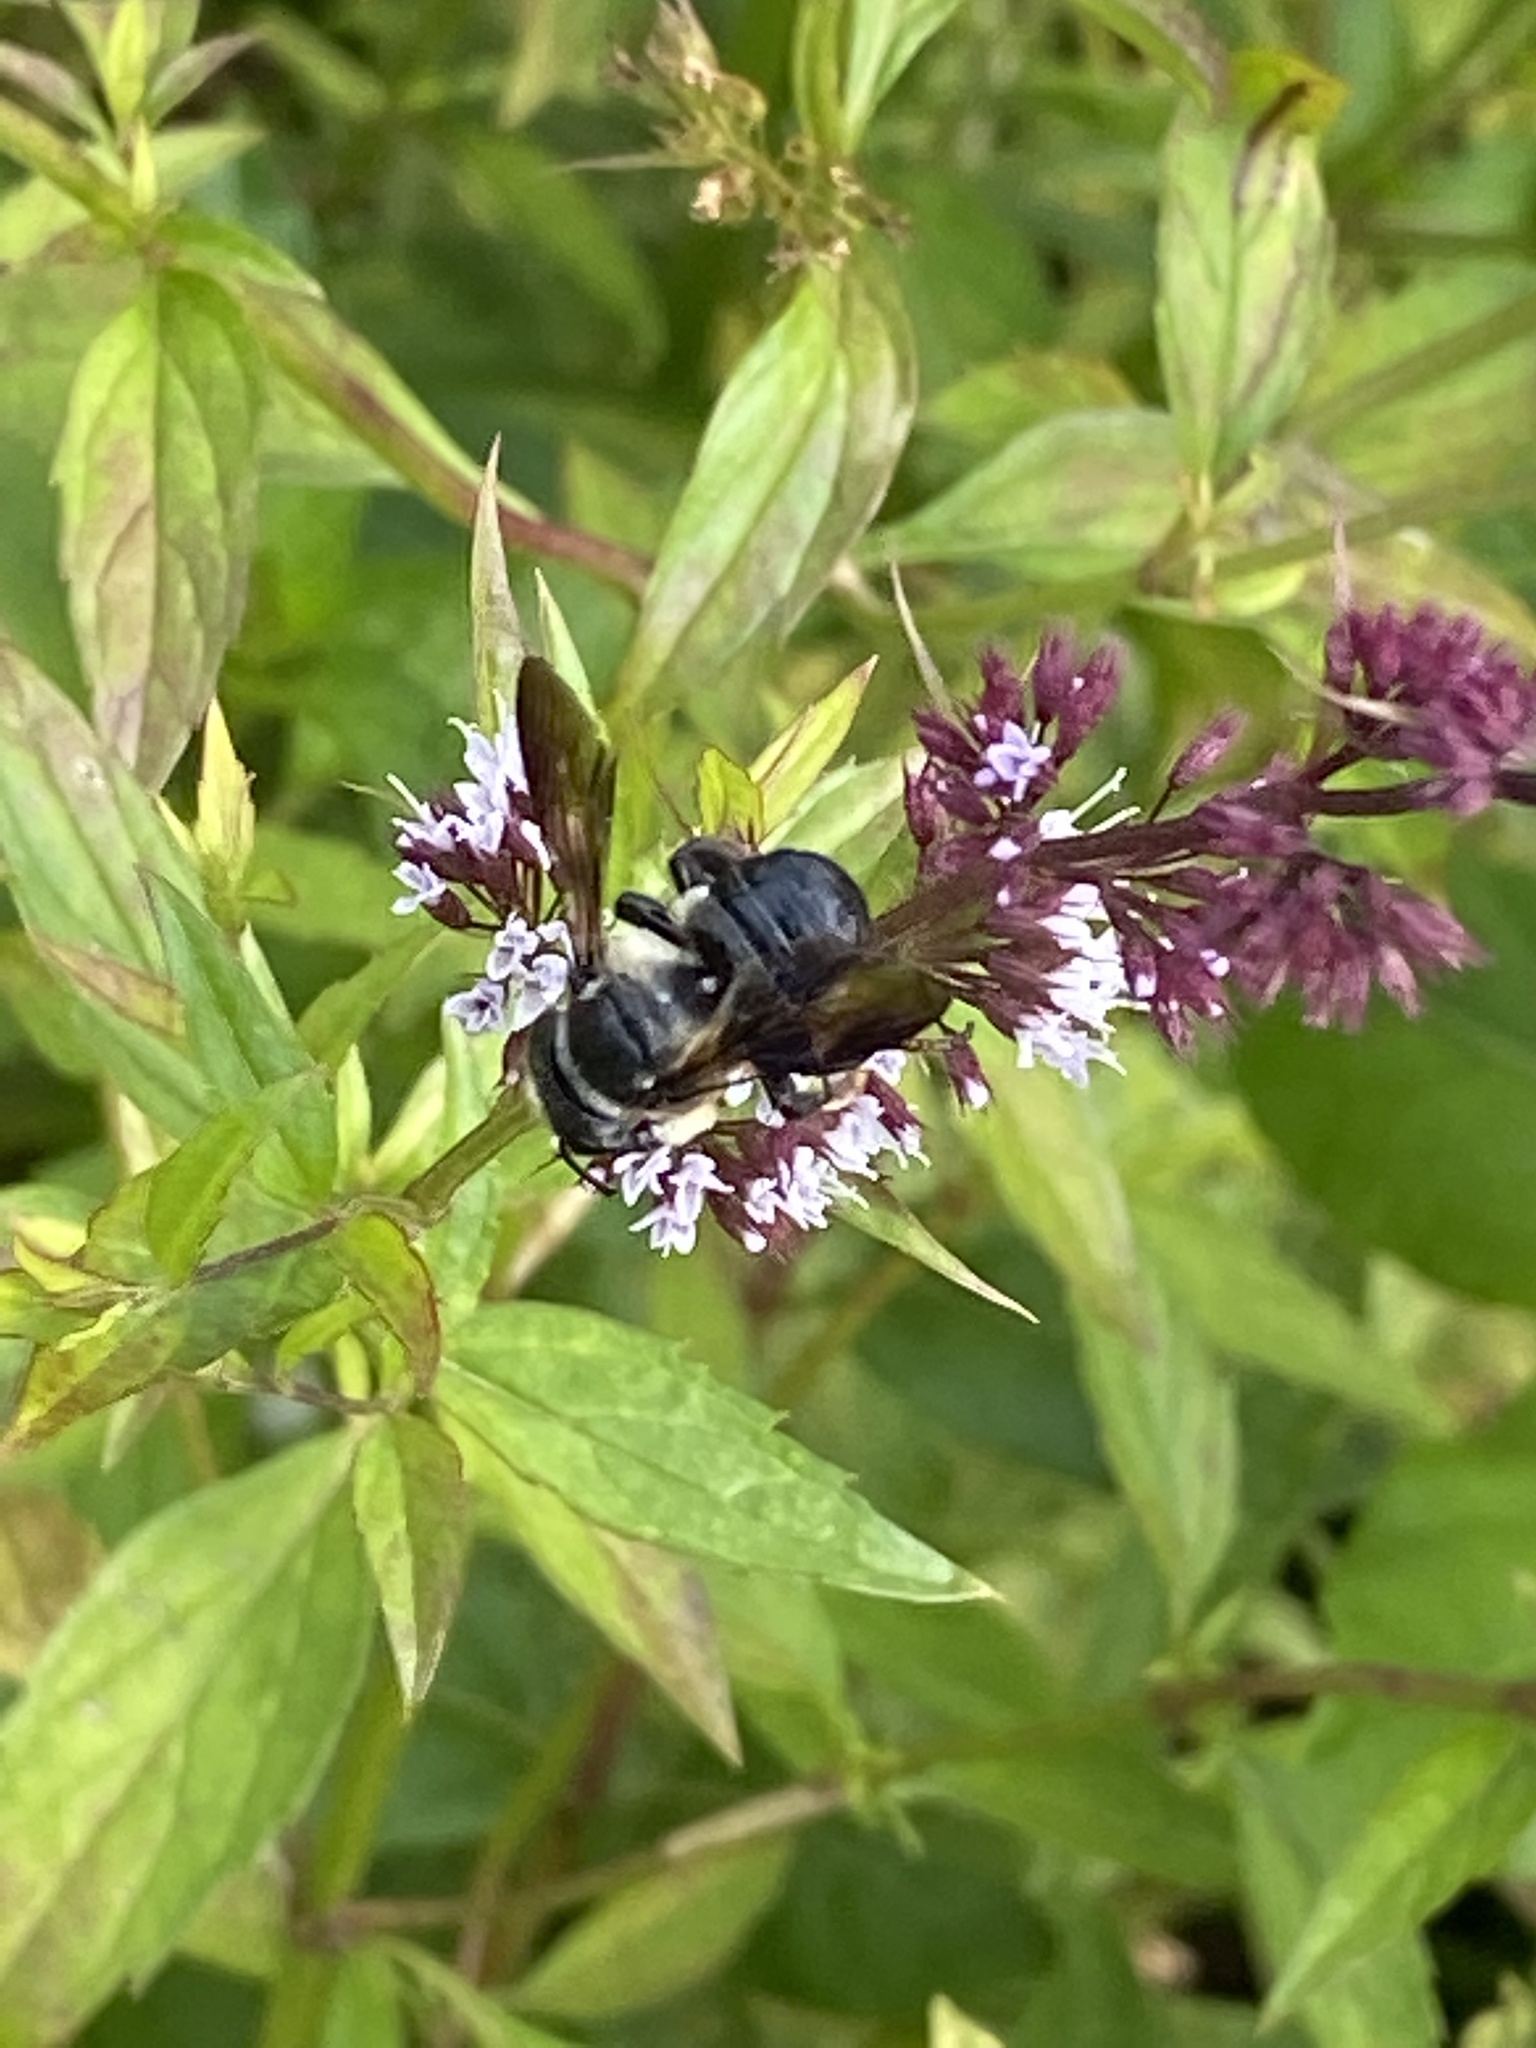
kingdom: Animalia
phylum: Arthropoda
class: Insecta
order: Hymenoptera
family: Megachilidae
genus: Megachile
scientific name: Megachile xylocopoides
